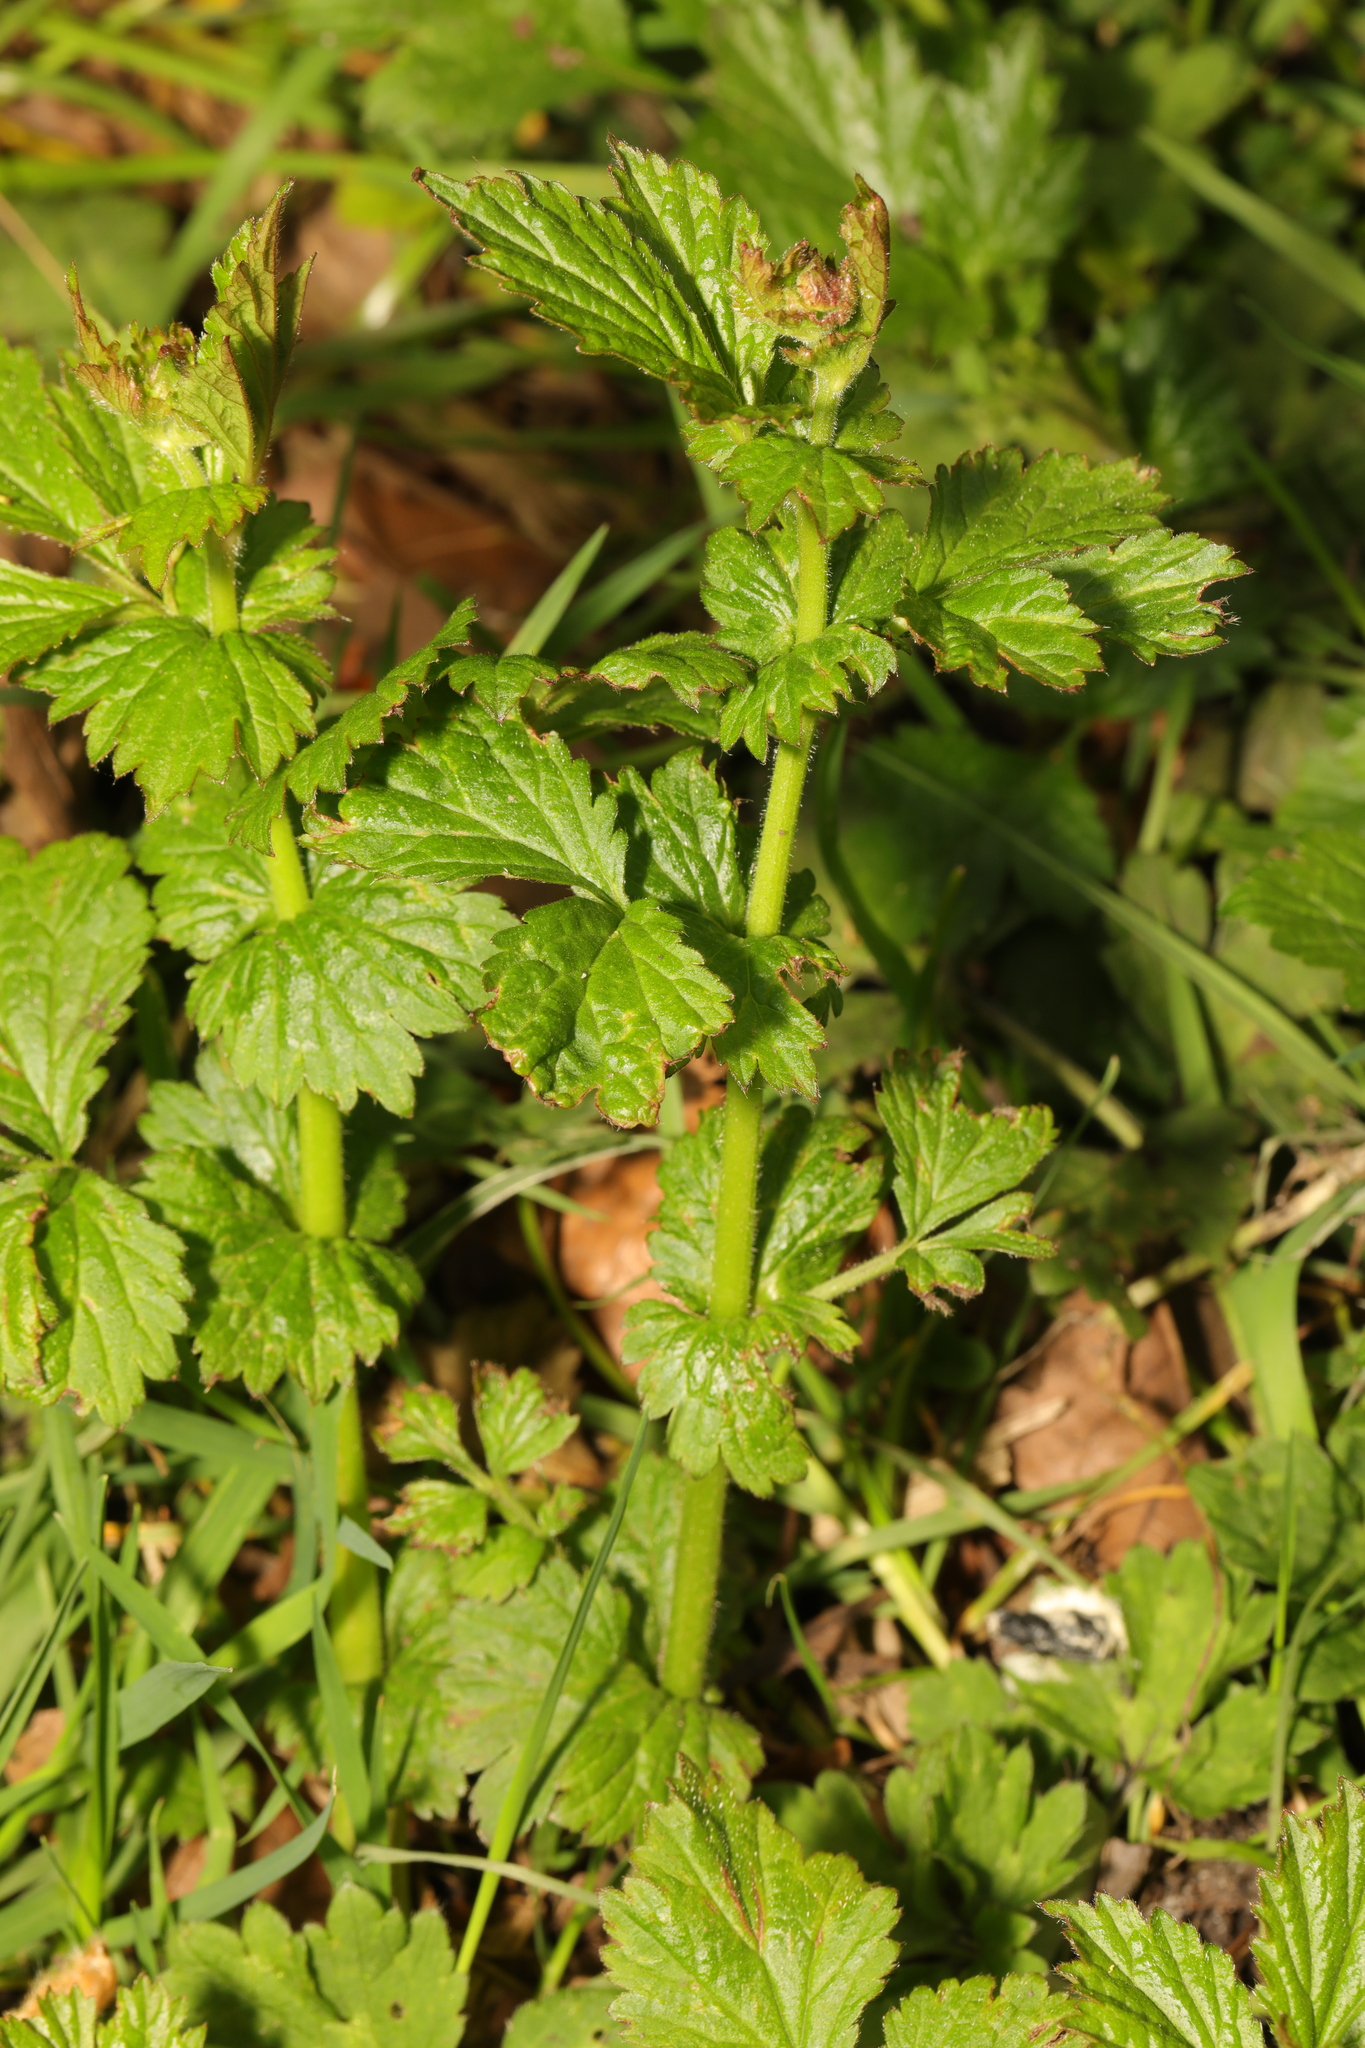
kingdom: Plantae
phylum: Tracheophyta
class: Magnoliopsida
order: Rosales
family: Rosaceae
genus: Geum
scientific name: Geum urbanum
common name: Wood avens
